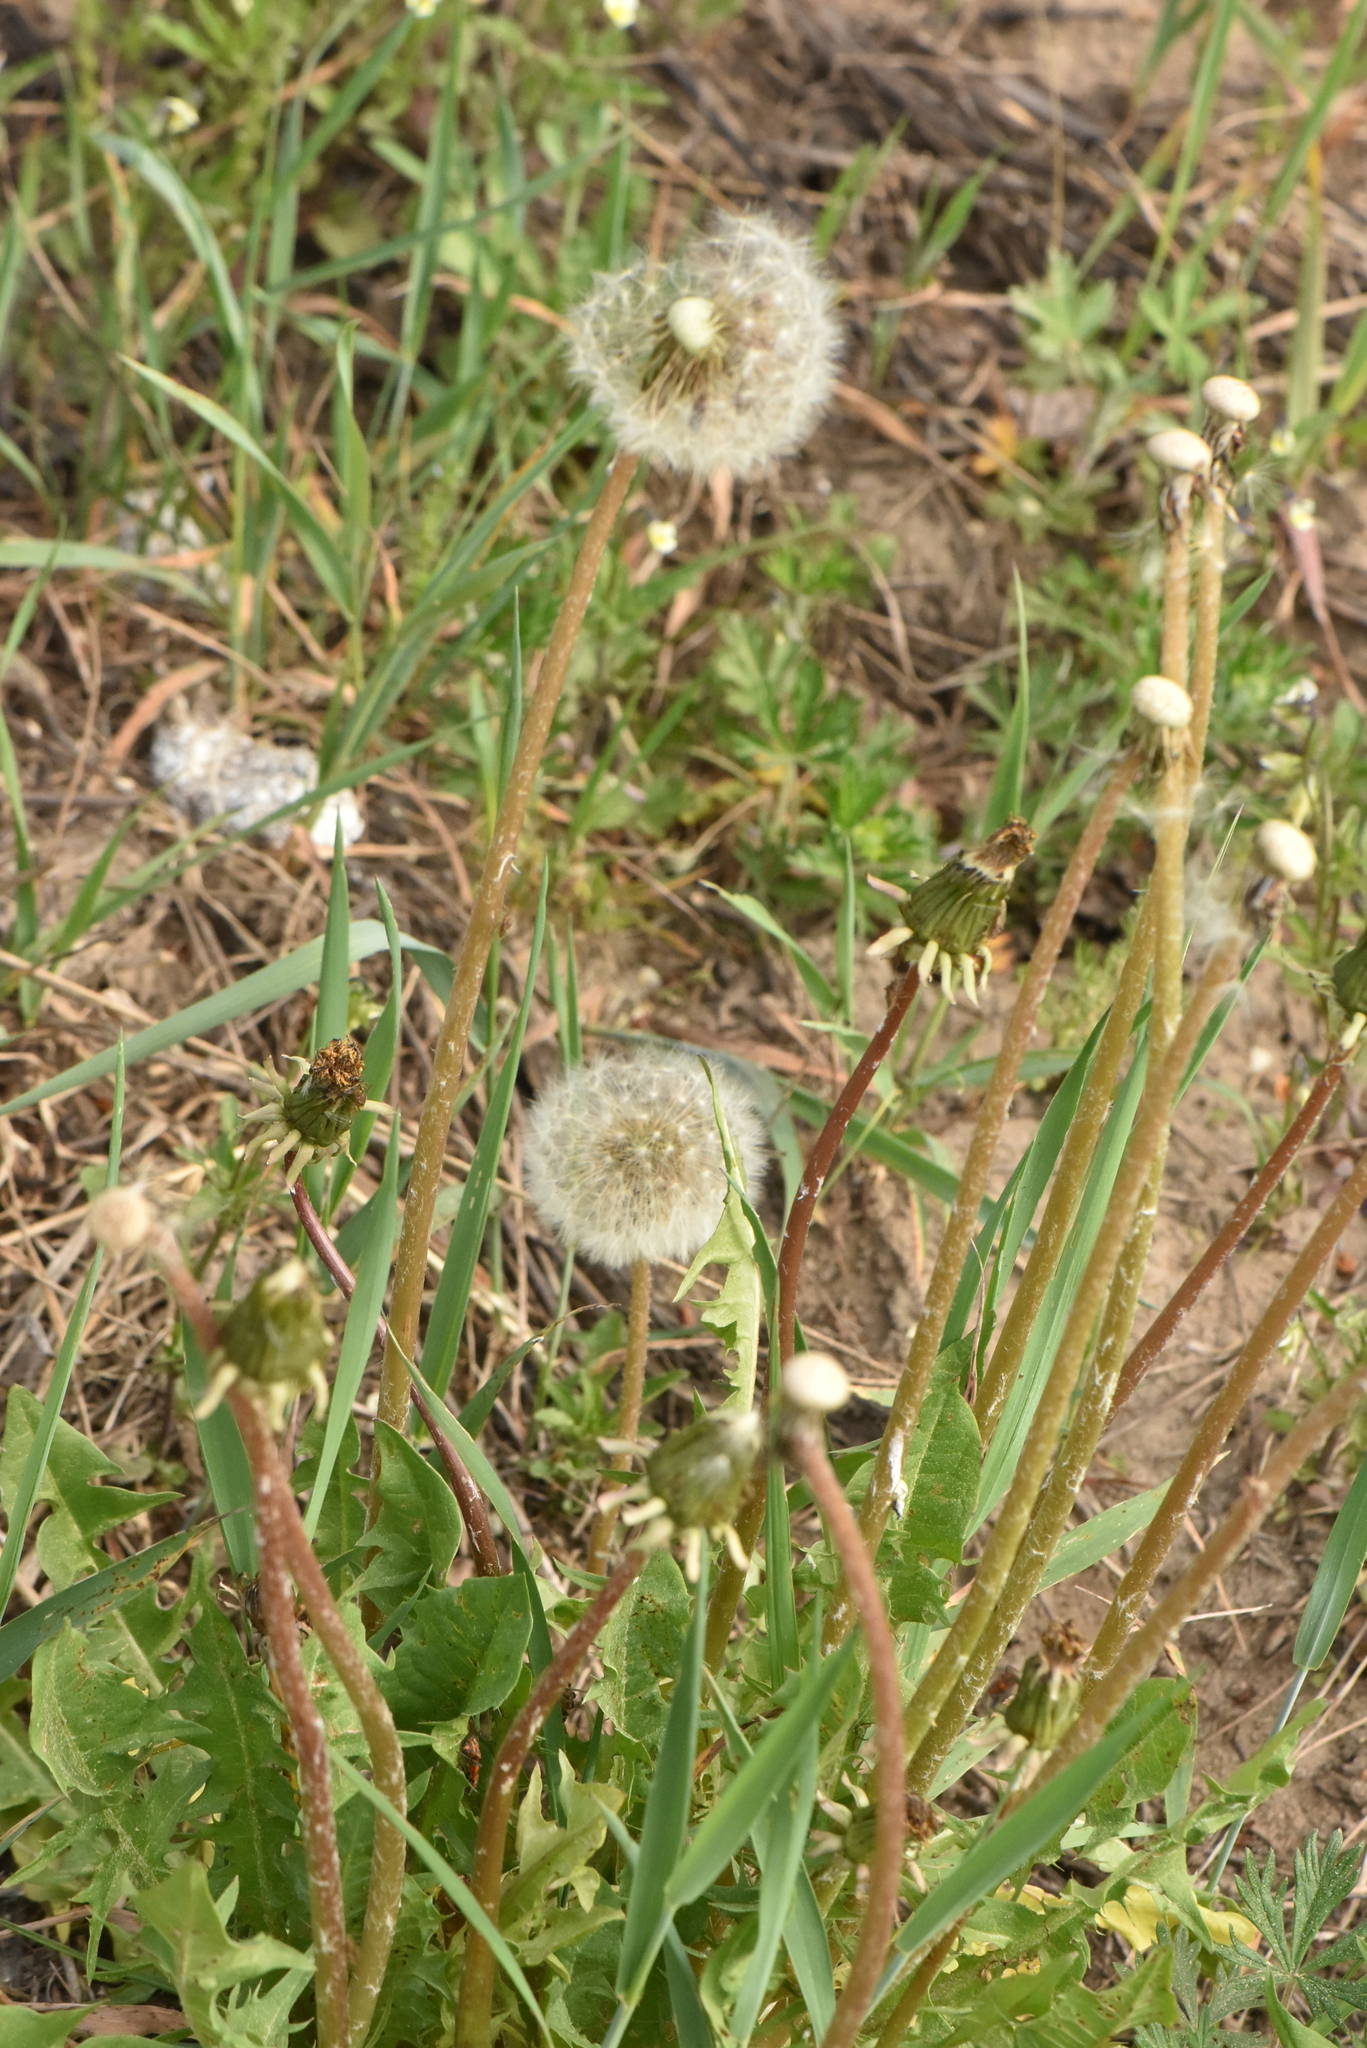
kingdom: Plantae
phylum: Tracheophyta
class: Magnoliopsida
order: Asterales
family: Asteraceae
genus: Taraxacum
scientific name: Taraxacum officinale
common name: Common dandelion
